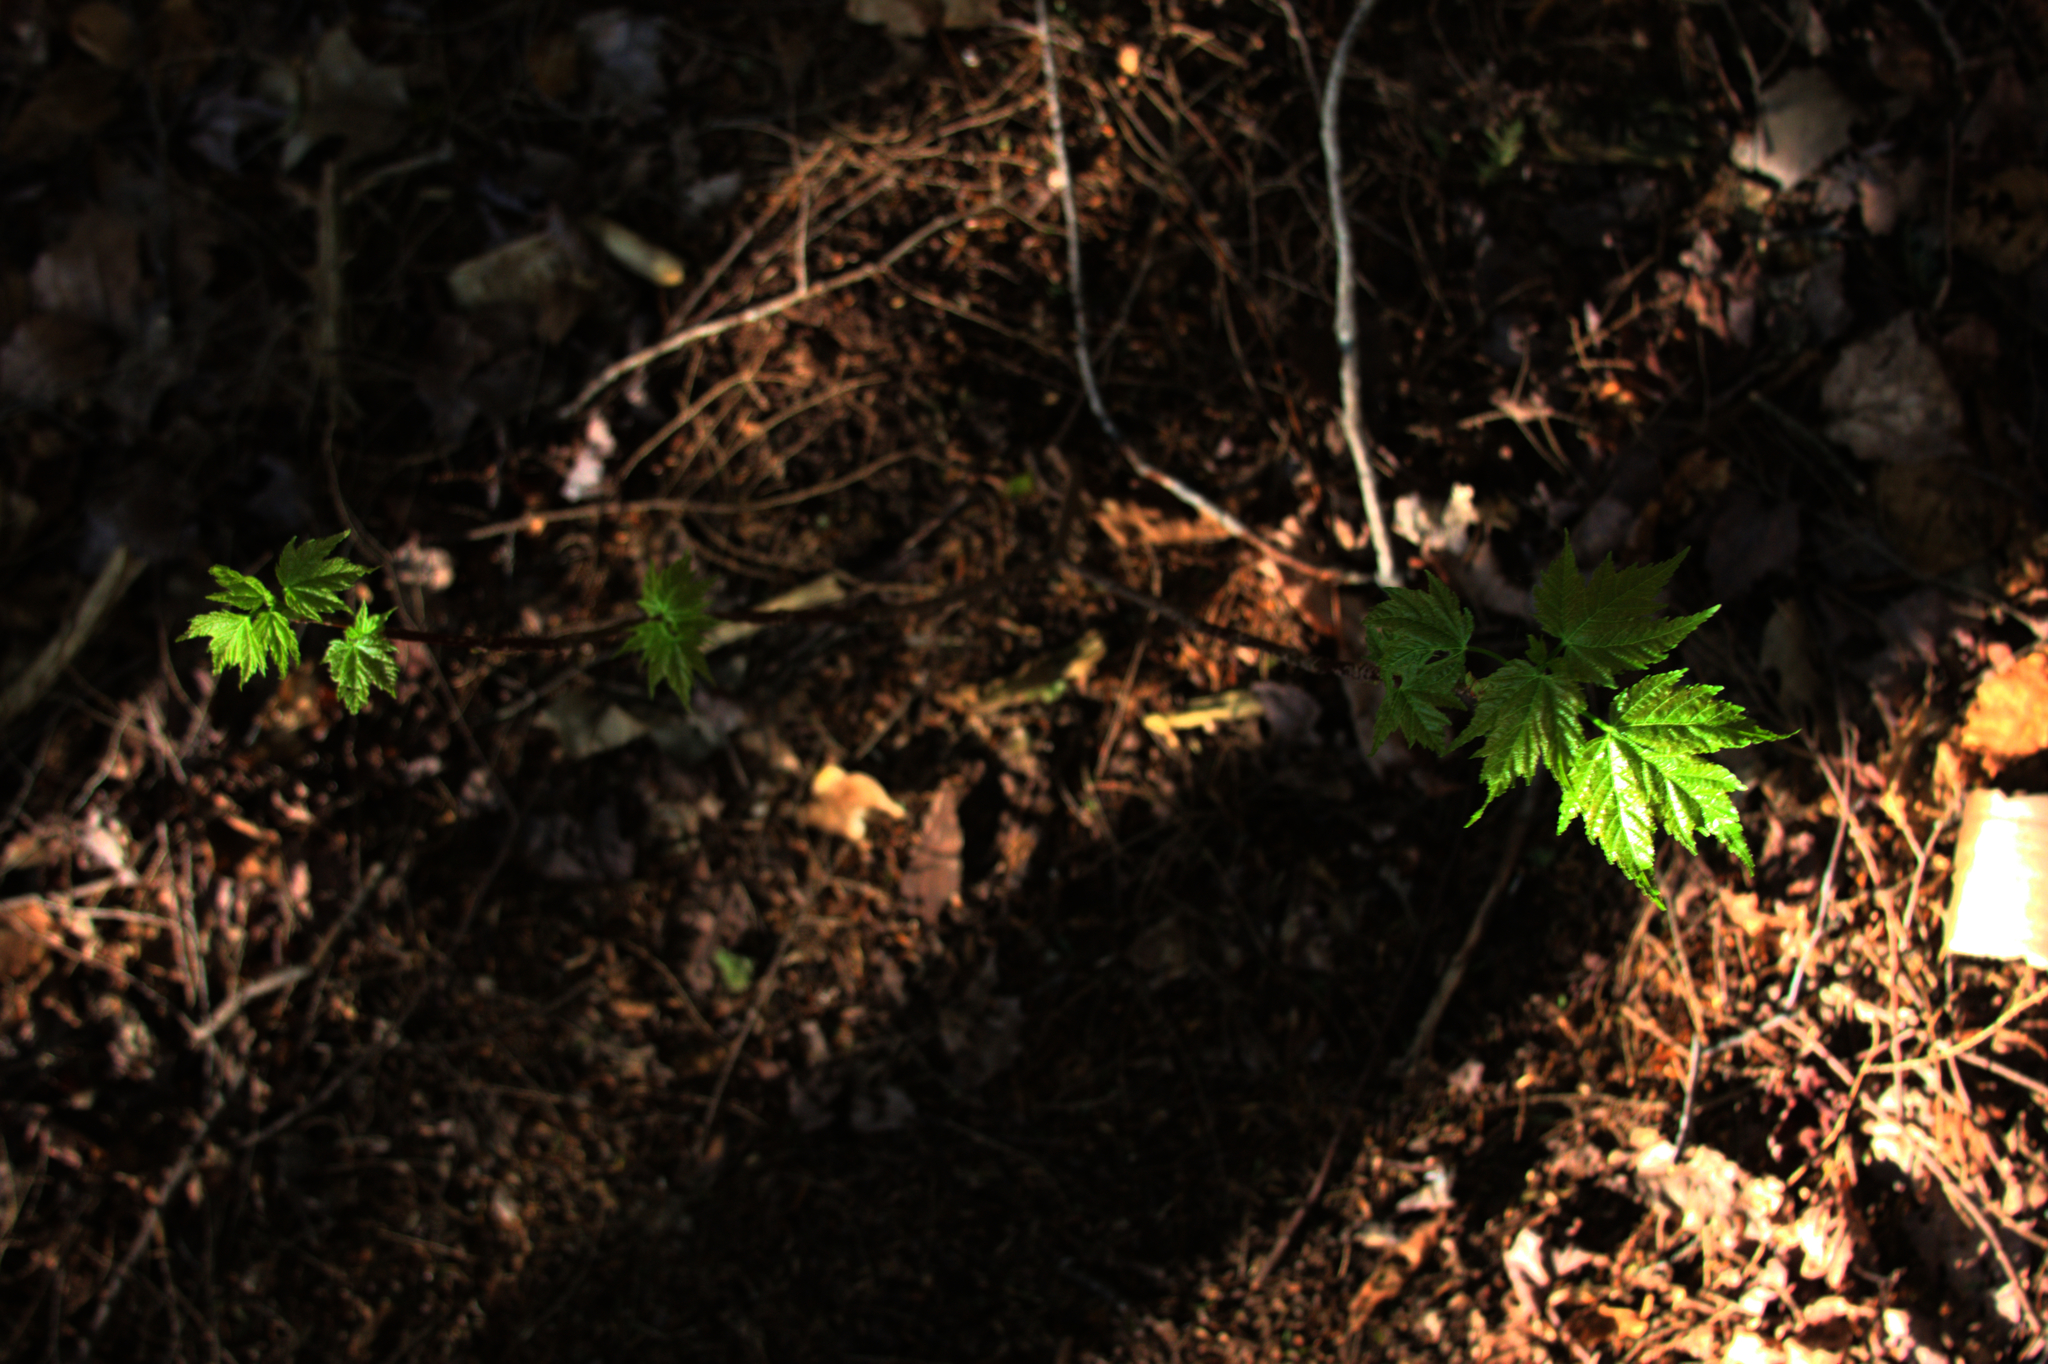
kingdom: Plantae
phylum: Tracheophyta
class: Magnoliopsida
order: Sapindales
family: Sapindaceae
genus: Acer
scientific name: Acer rubrum
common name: Red maple
